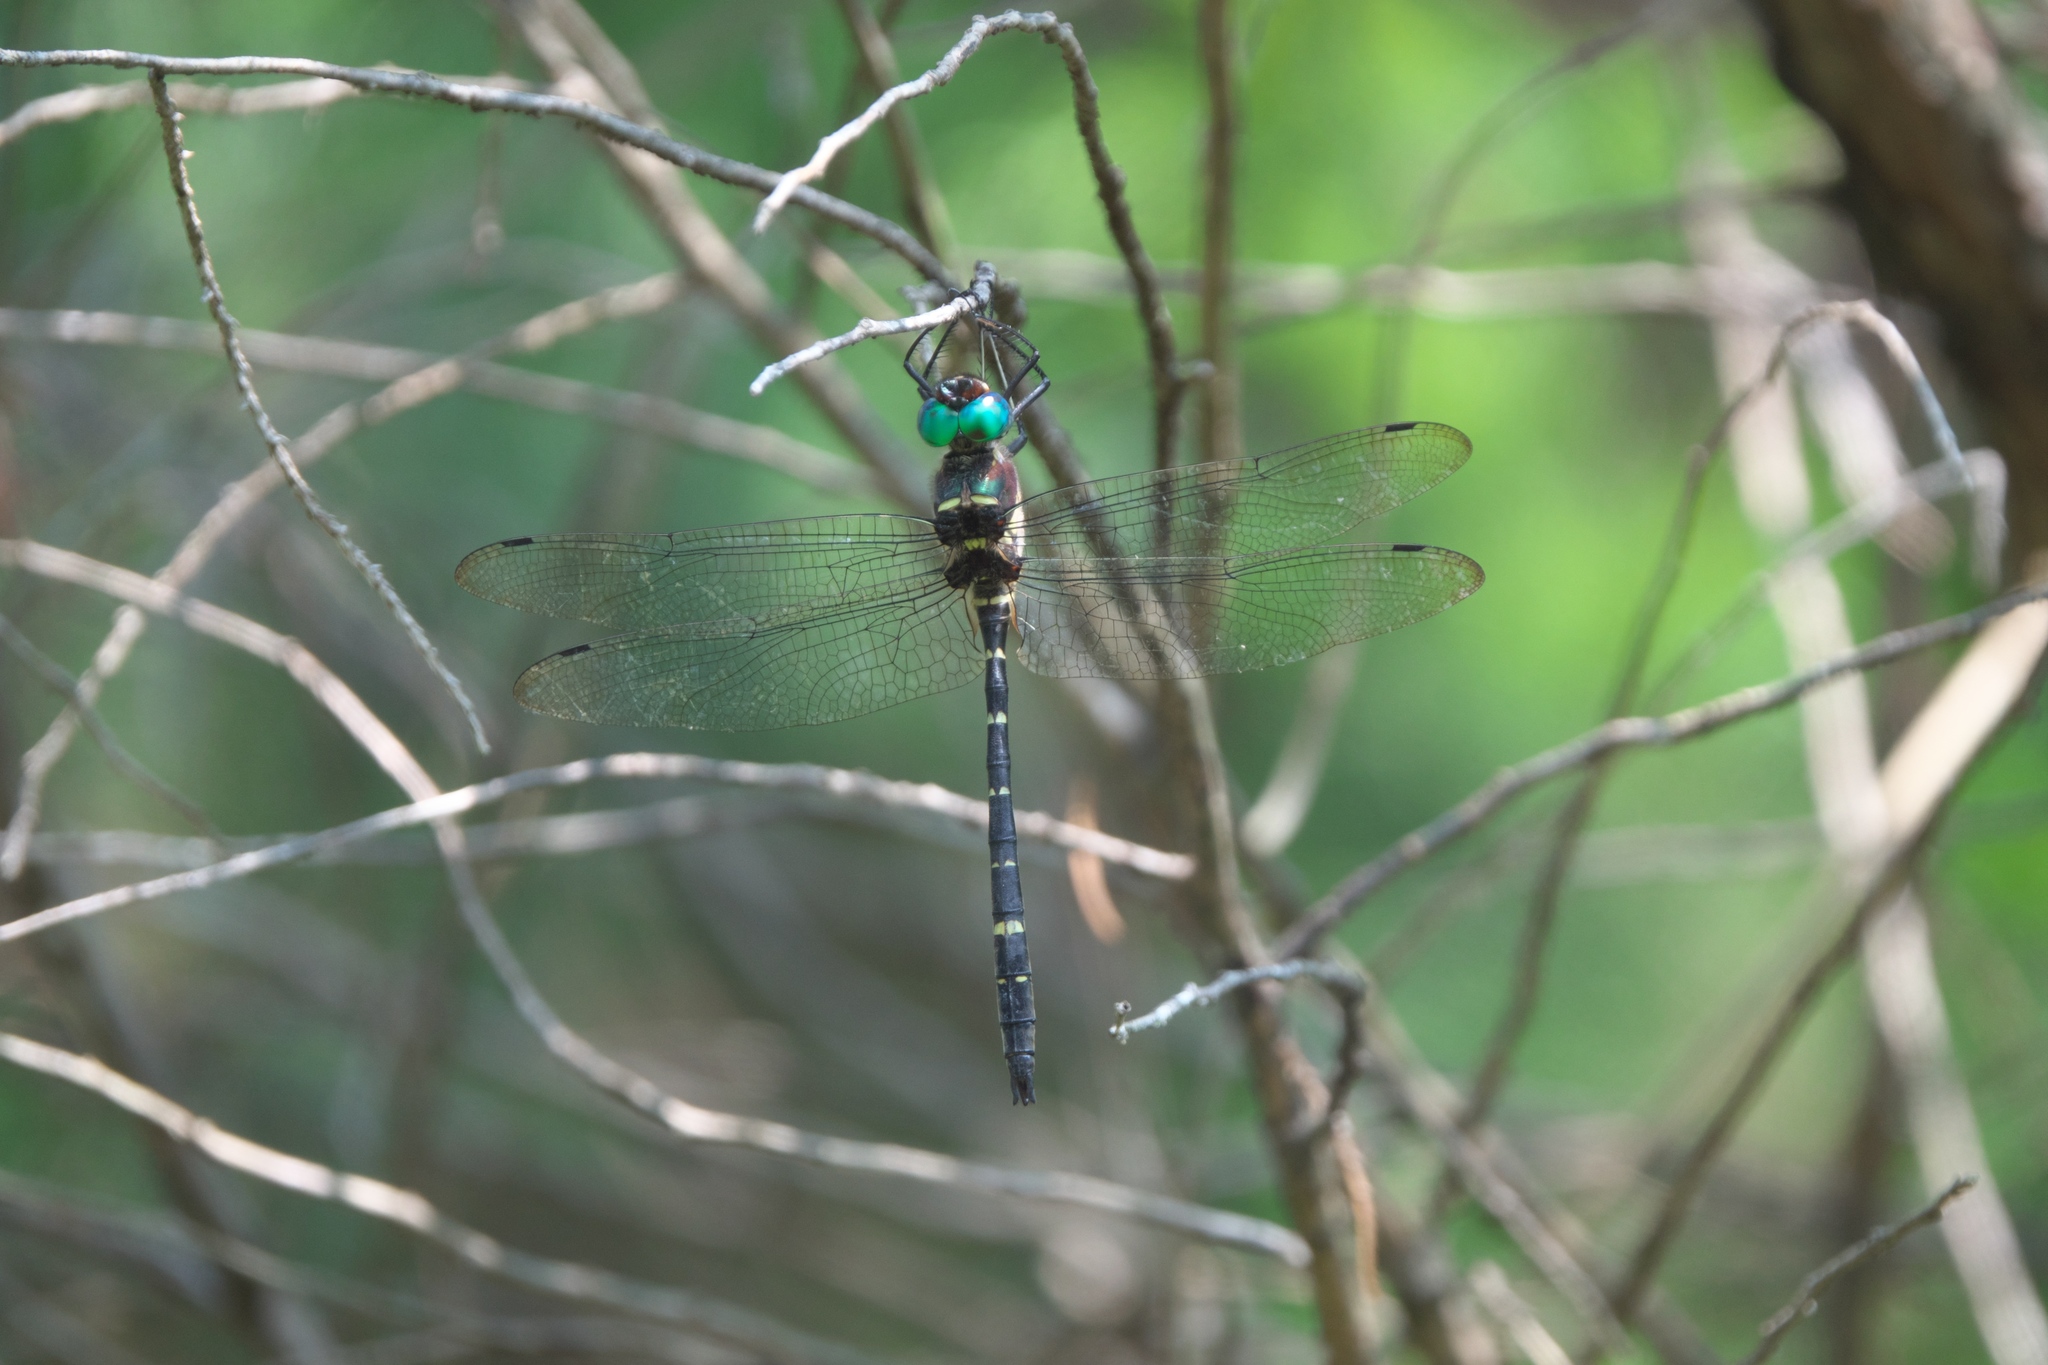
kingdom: Animalia
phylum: Arthropoda
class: Insecta
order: Odonata
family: Macromiidae
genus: Macromia
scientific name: Macromia taeniolata
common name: Royal river cruiser
